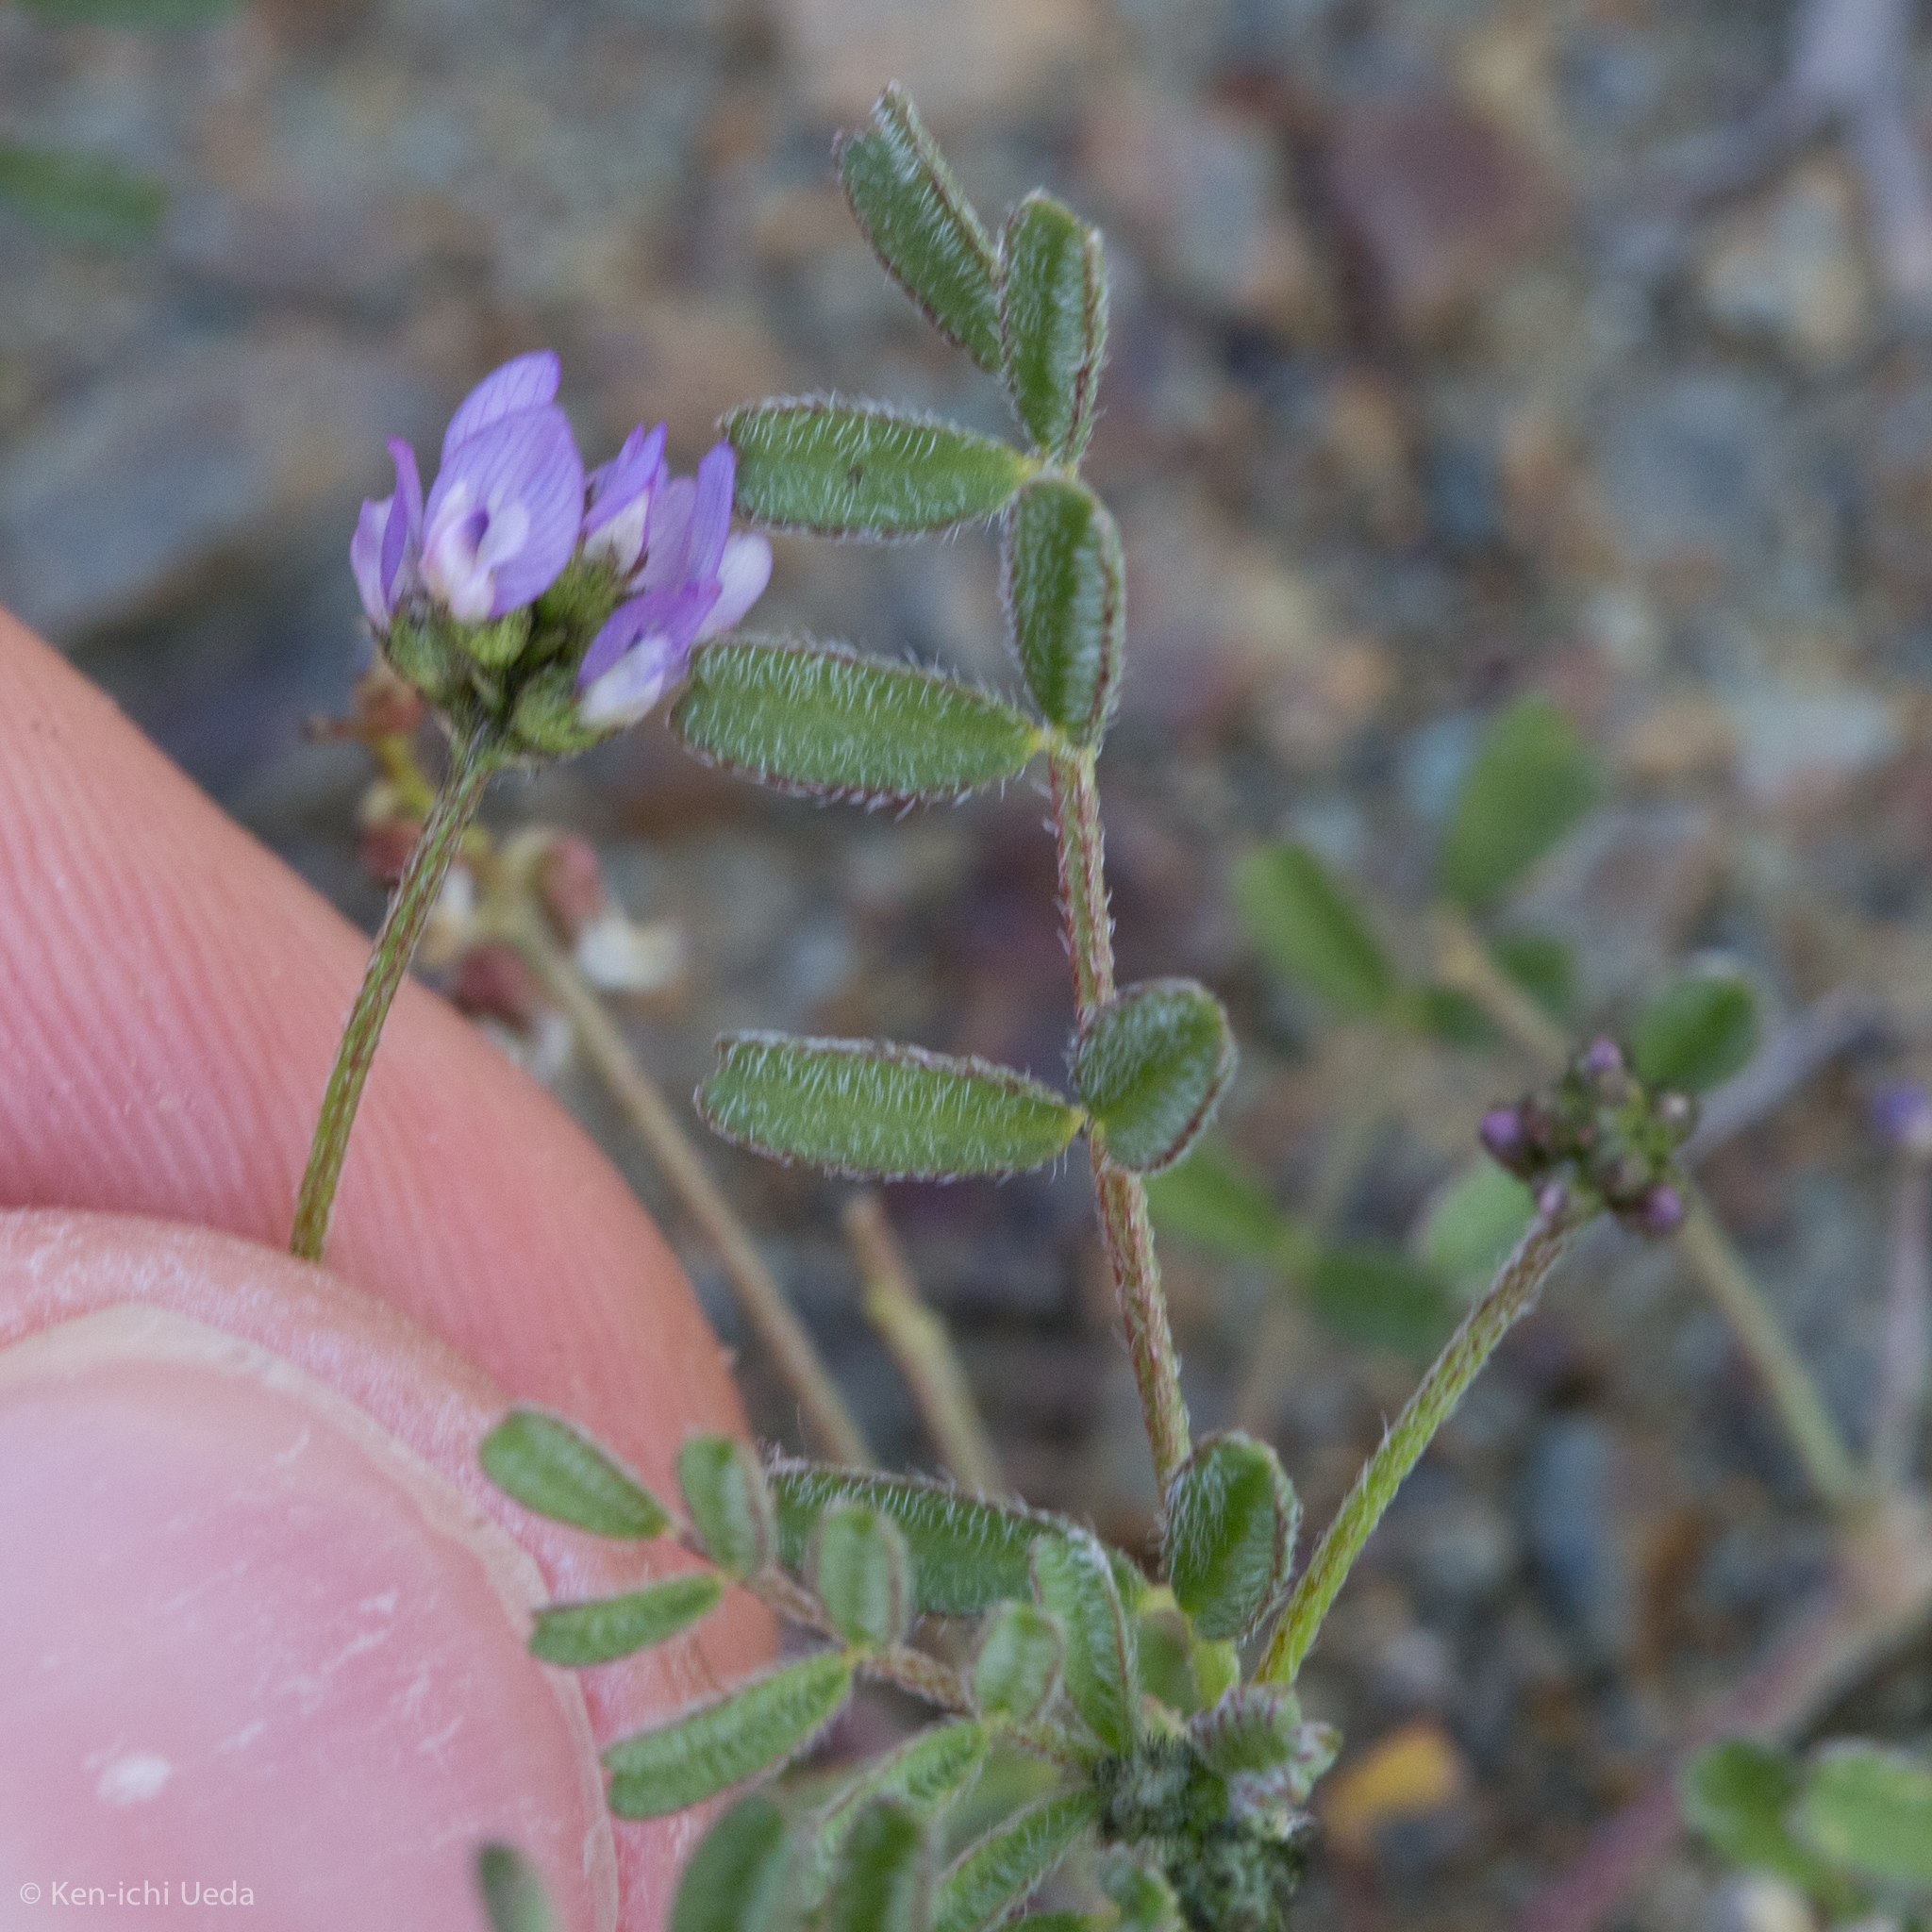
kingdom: Plantae
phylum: Tracheophyta
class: Magnoliopsida
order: Fabales
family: Fabaceae
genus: Astragalus
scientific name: Astragalus gambelianus
